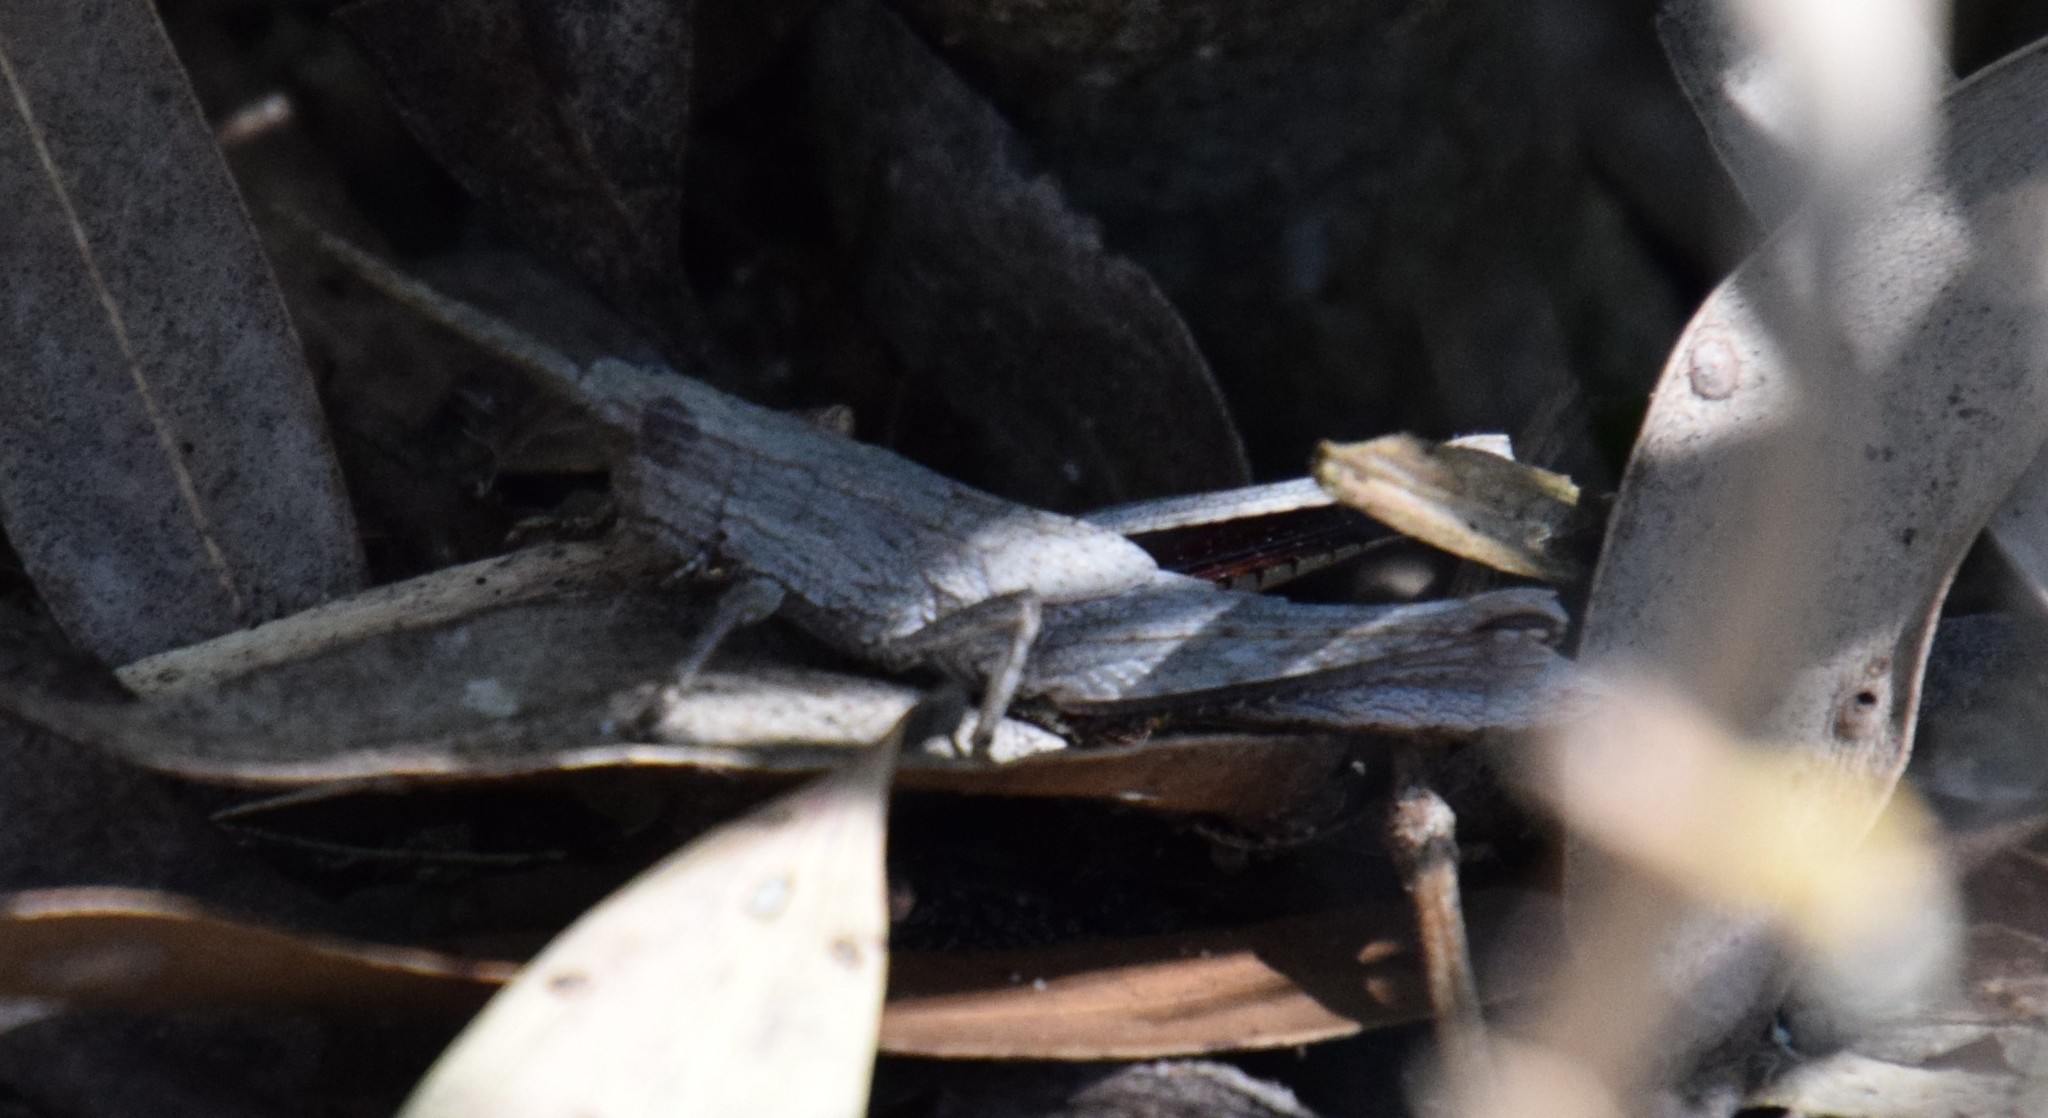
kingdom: Animalia
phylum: Arthropoda
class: Insecta
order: Orthoptera
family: Acrididae
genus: Coryphistes
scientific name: Coryphistes ruricola
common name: Bark-mimicking grasshopper
